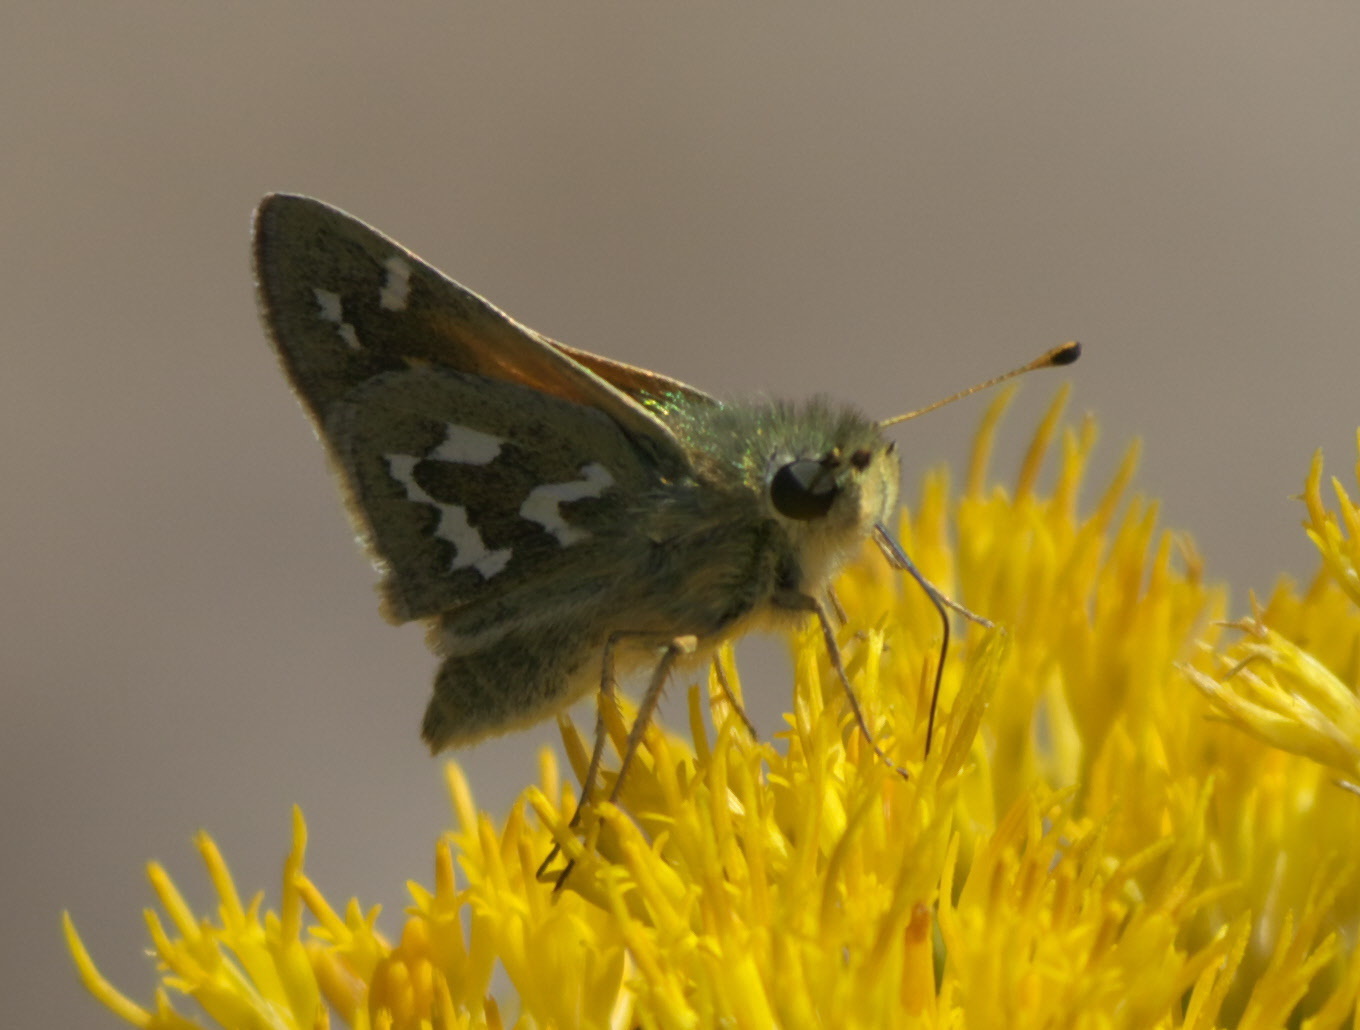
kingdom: Animalia
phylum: Arthropoda
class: Insecta
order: Lepidoptera
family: Hesperiidae
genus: Hesperia
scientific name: Hesperia comma
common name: Common branded skipper
